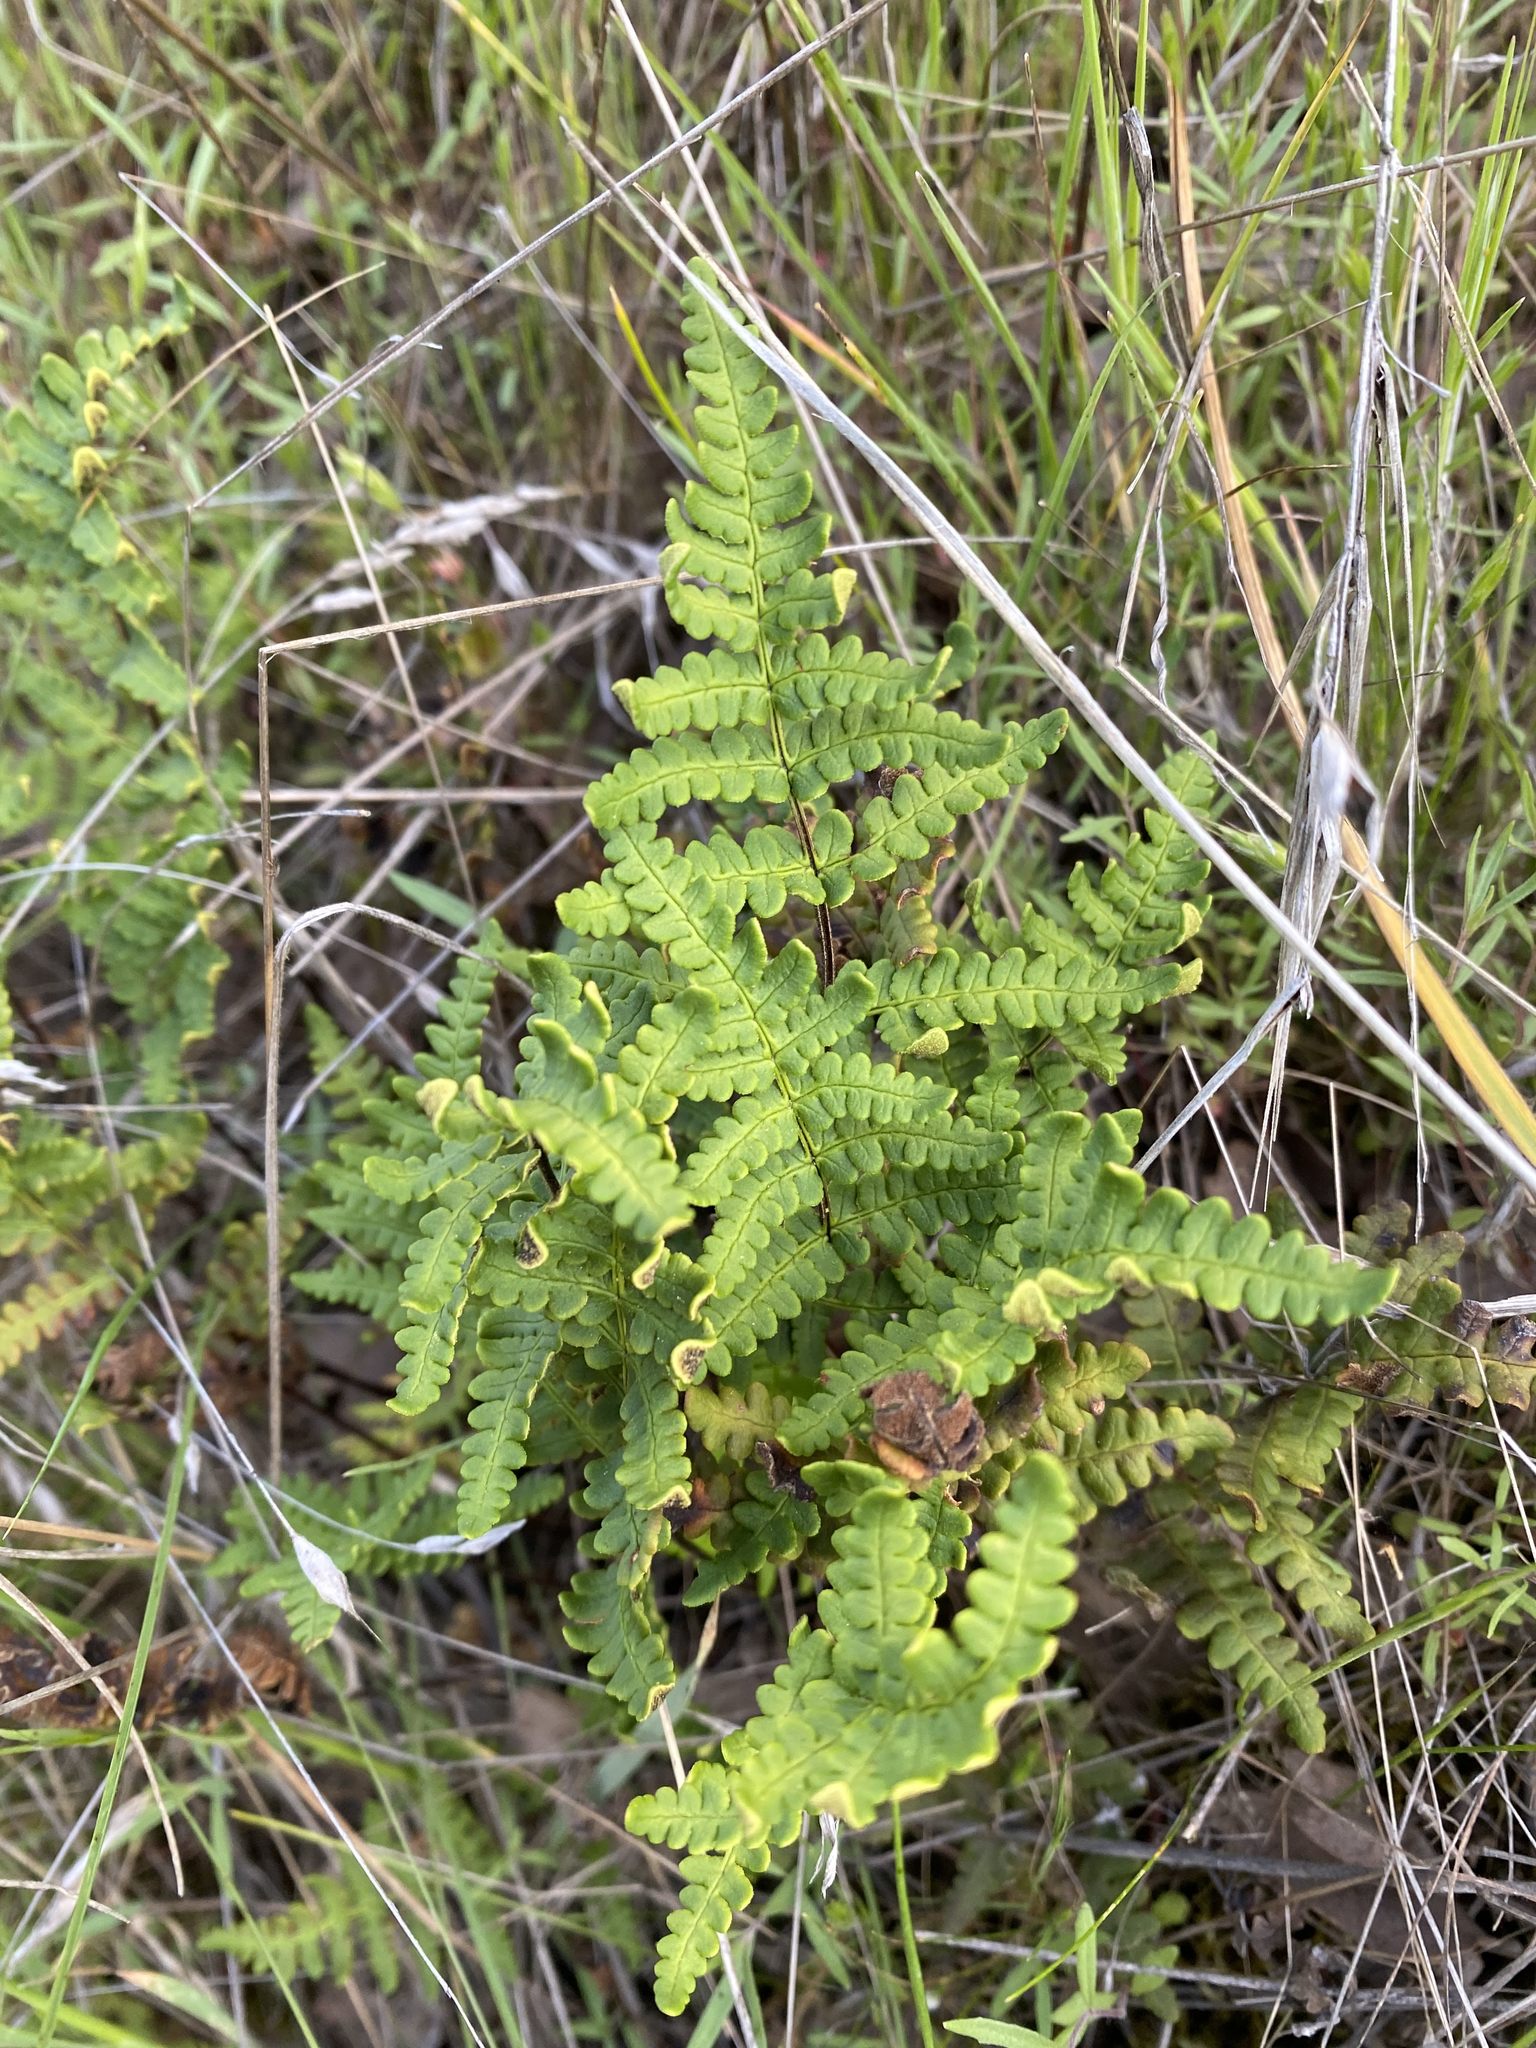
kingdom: Plantae
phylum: Tracheophyta
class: Polypodiopsida
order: Polypodiales
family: Pteridaceae
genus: Pentagramma
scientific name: Pentagramma triangularis
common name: Gold fern
